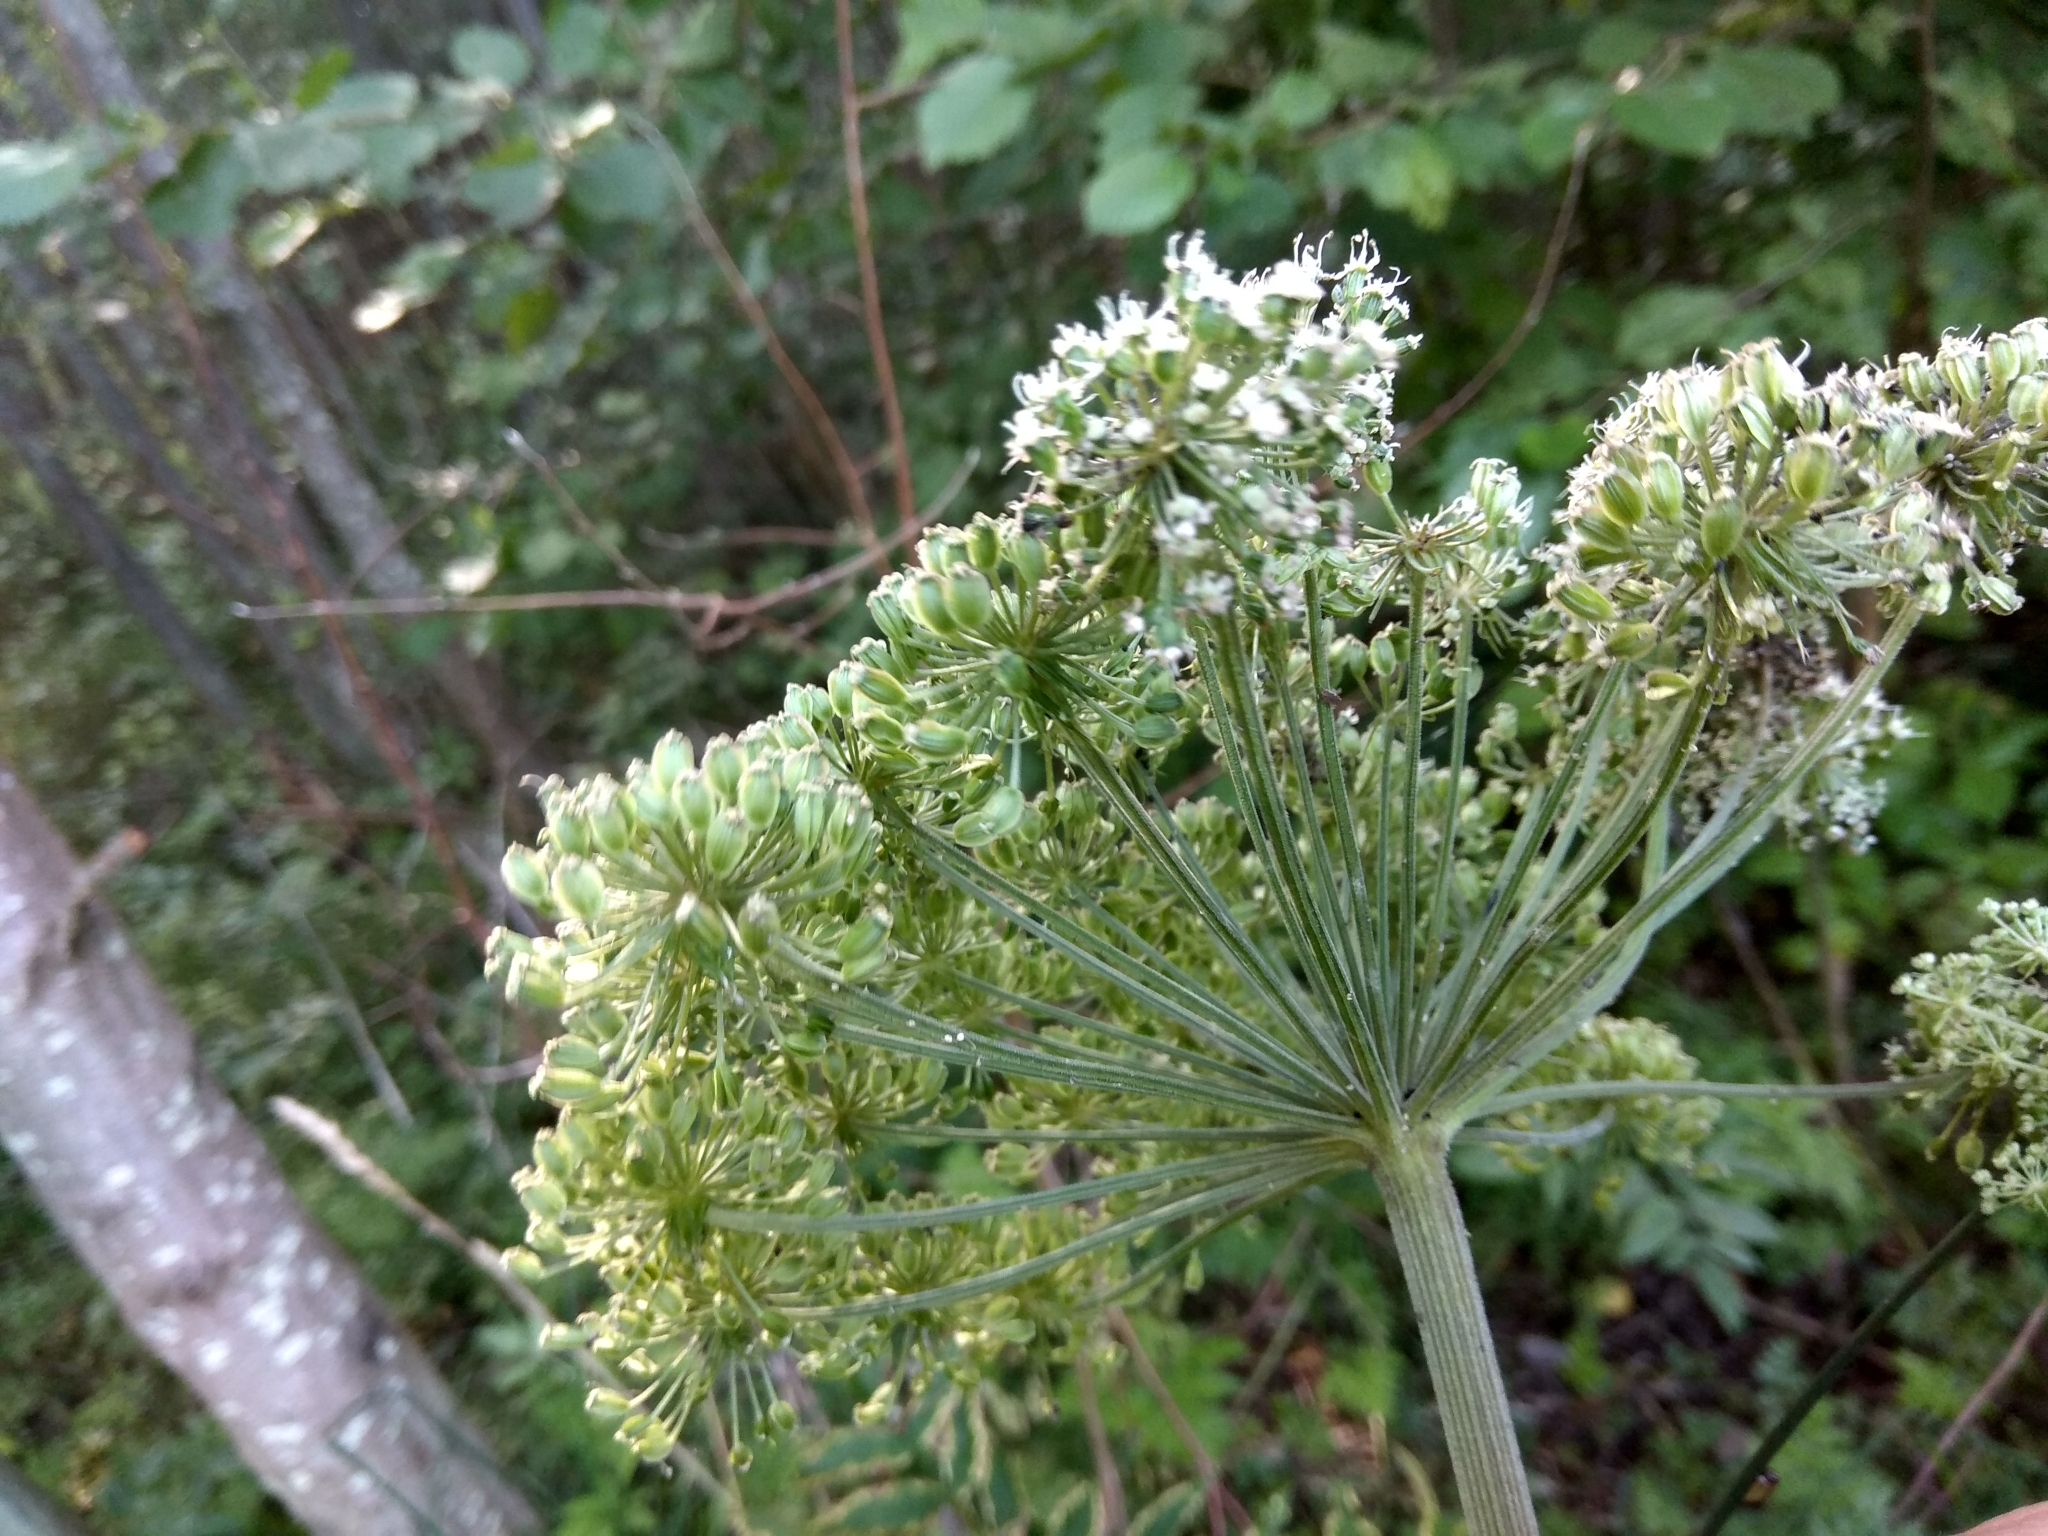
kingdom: Plantae
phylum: Tracheophyta
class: Magnoliopsida
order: Apiales
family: Apiaceae
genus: Angelica
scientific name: Angelica sylvestris
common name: Wild angelica
